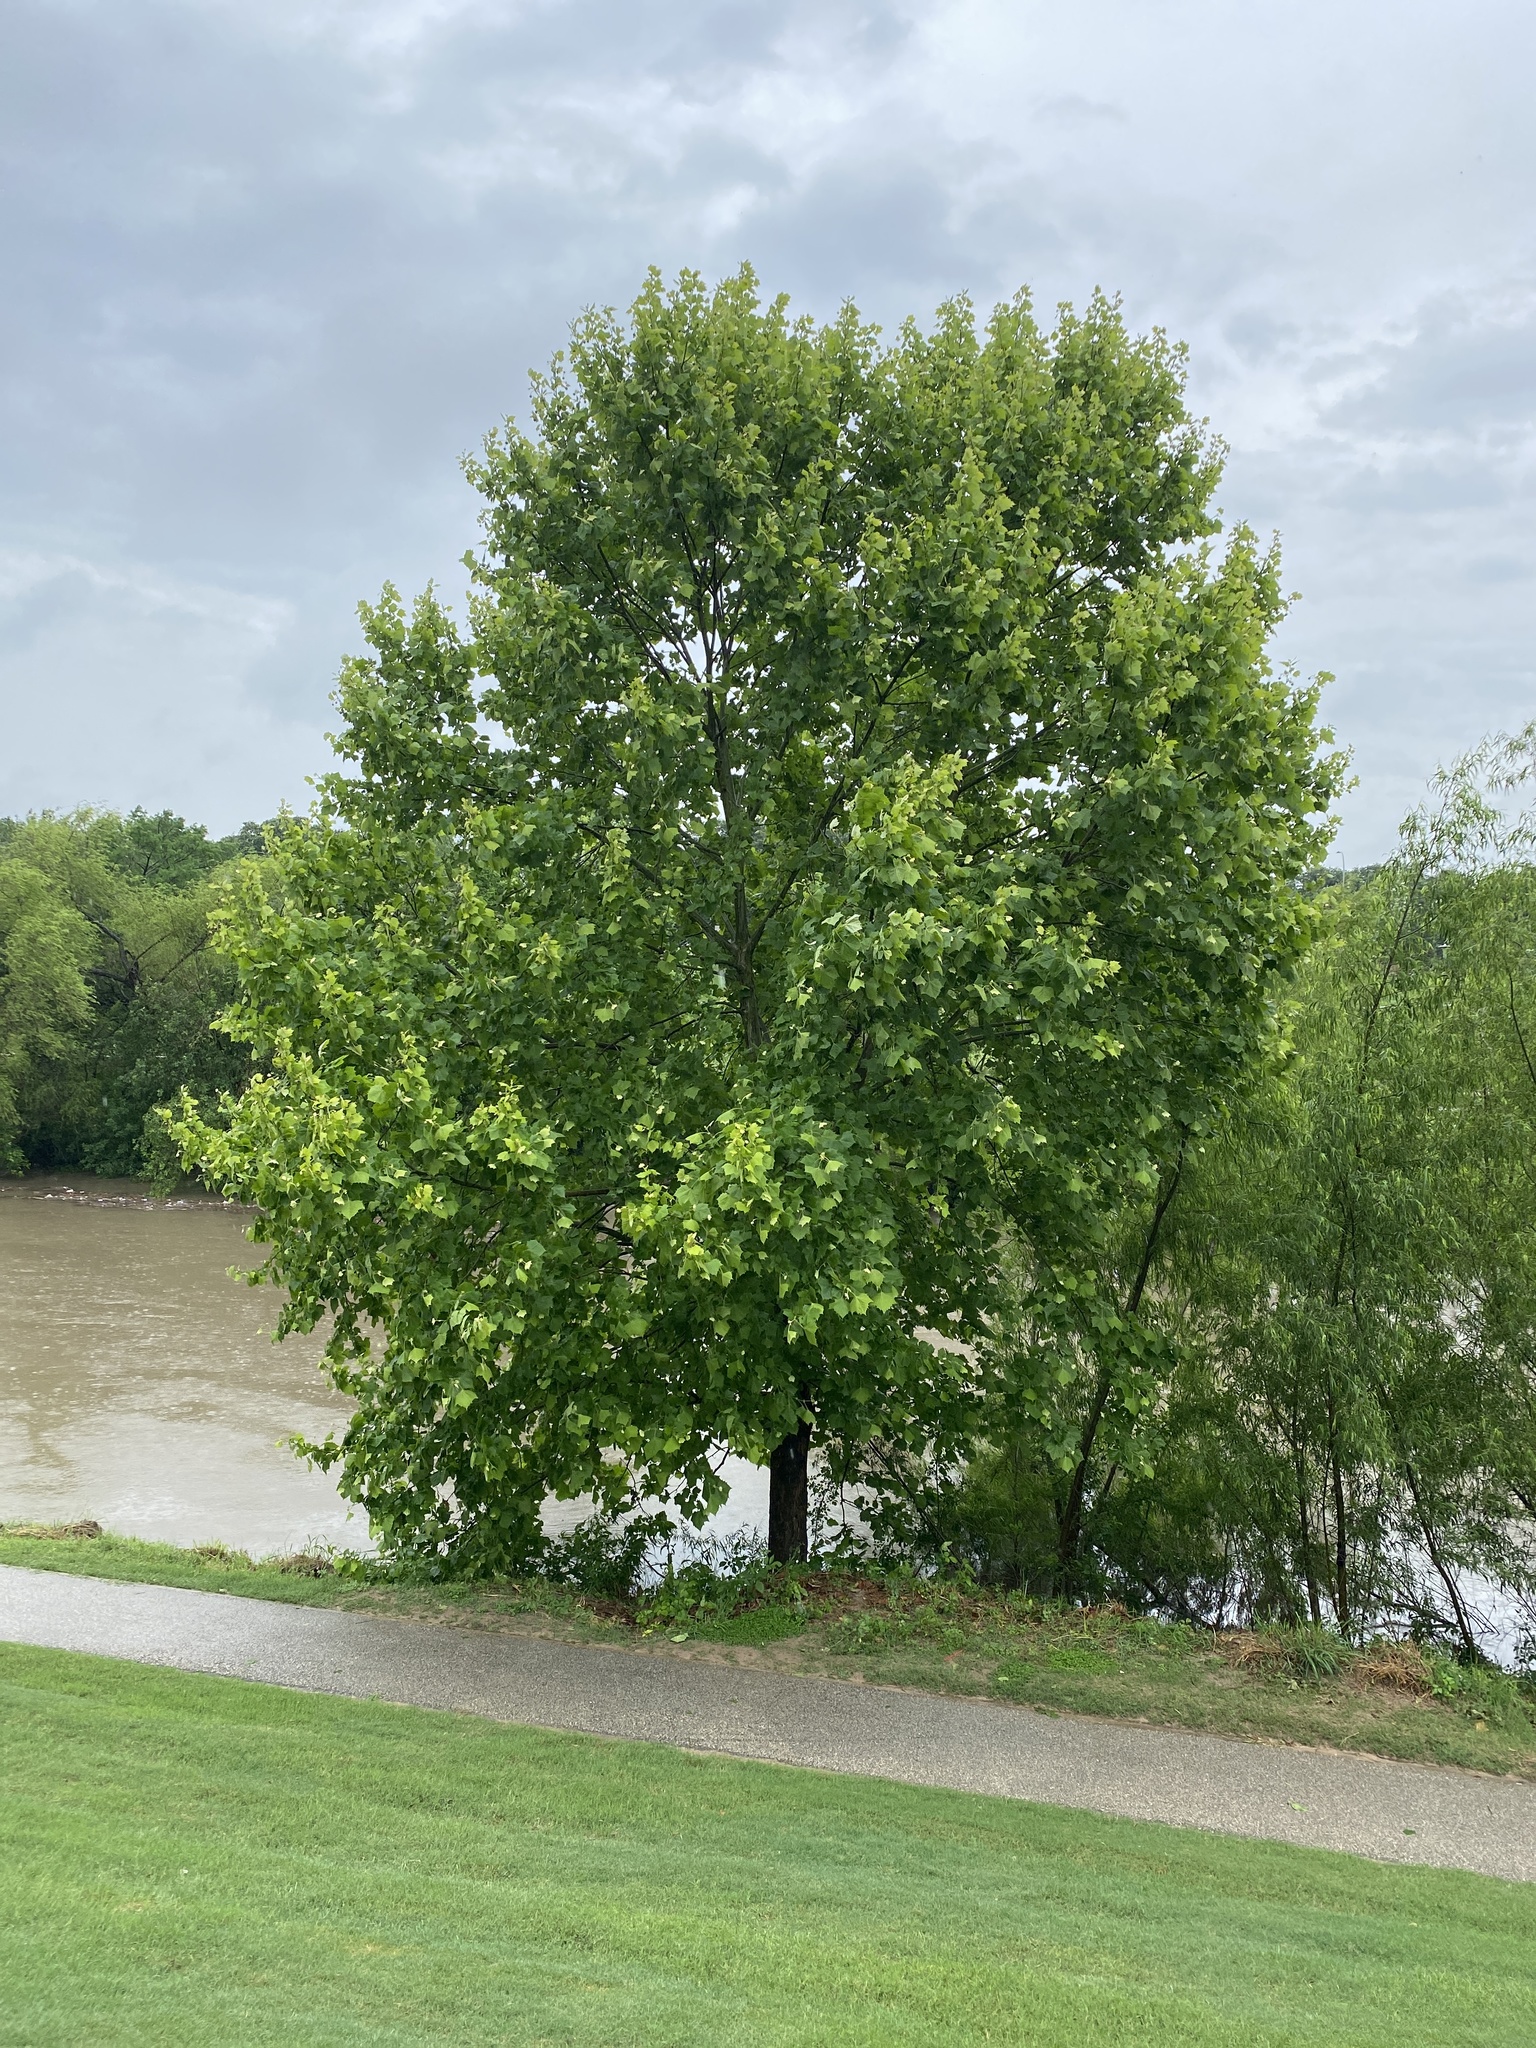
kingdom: Plantae
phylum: Tracheophyta
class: Magnoliopsida
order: Proteales
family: Platanaceae
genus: Platanus
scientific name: Platanus occidentalis
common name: American sycamore
